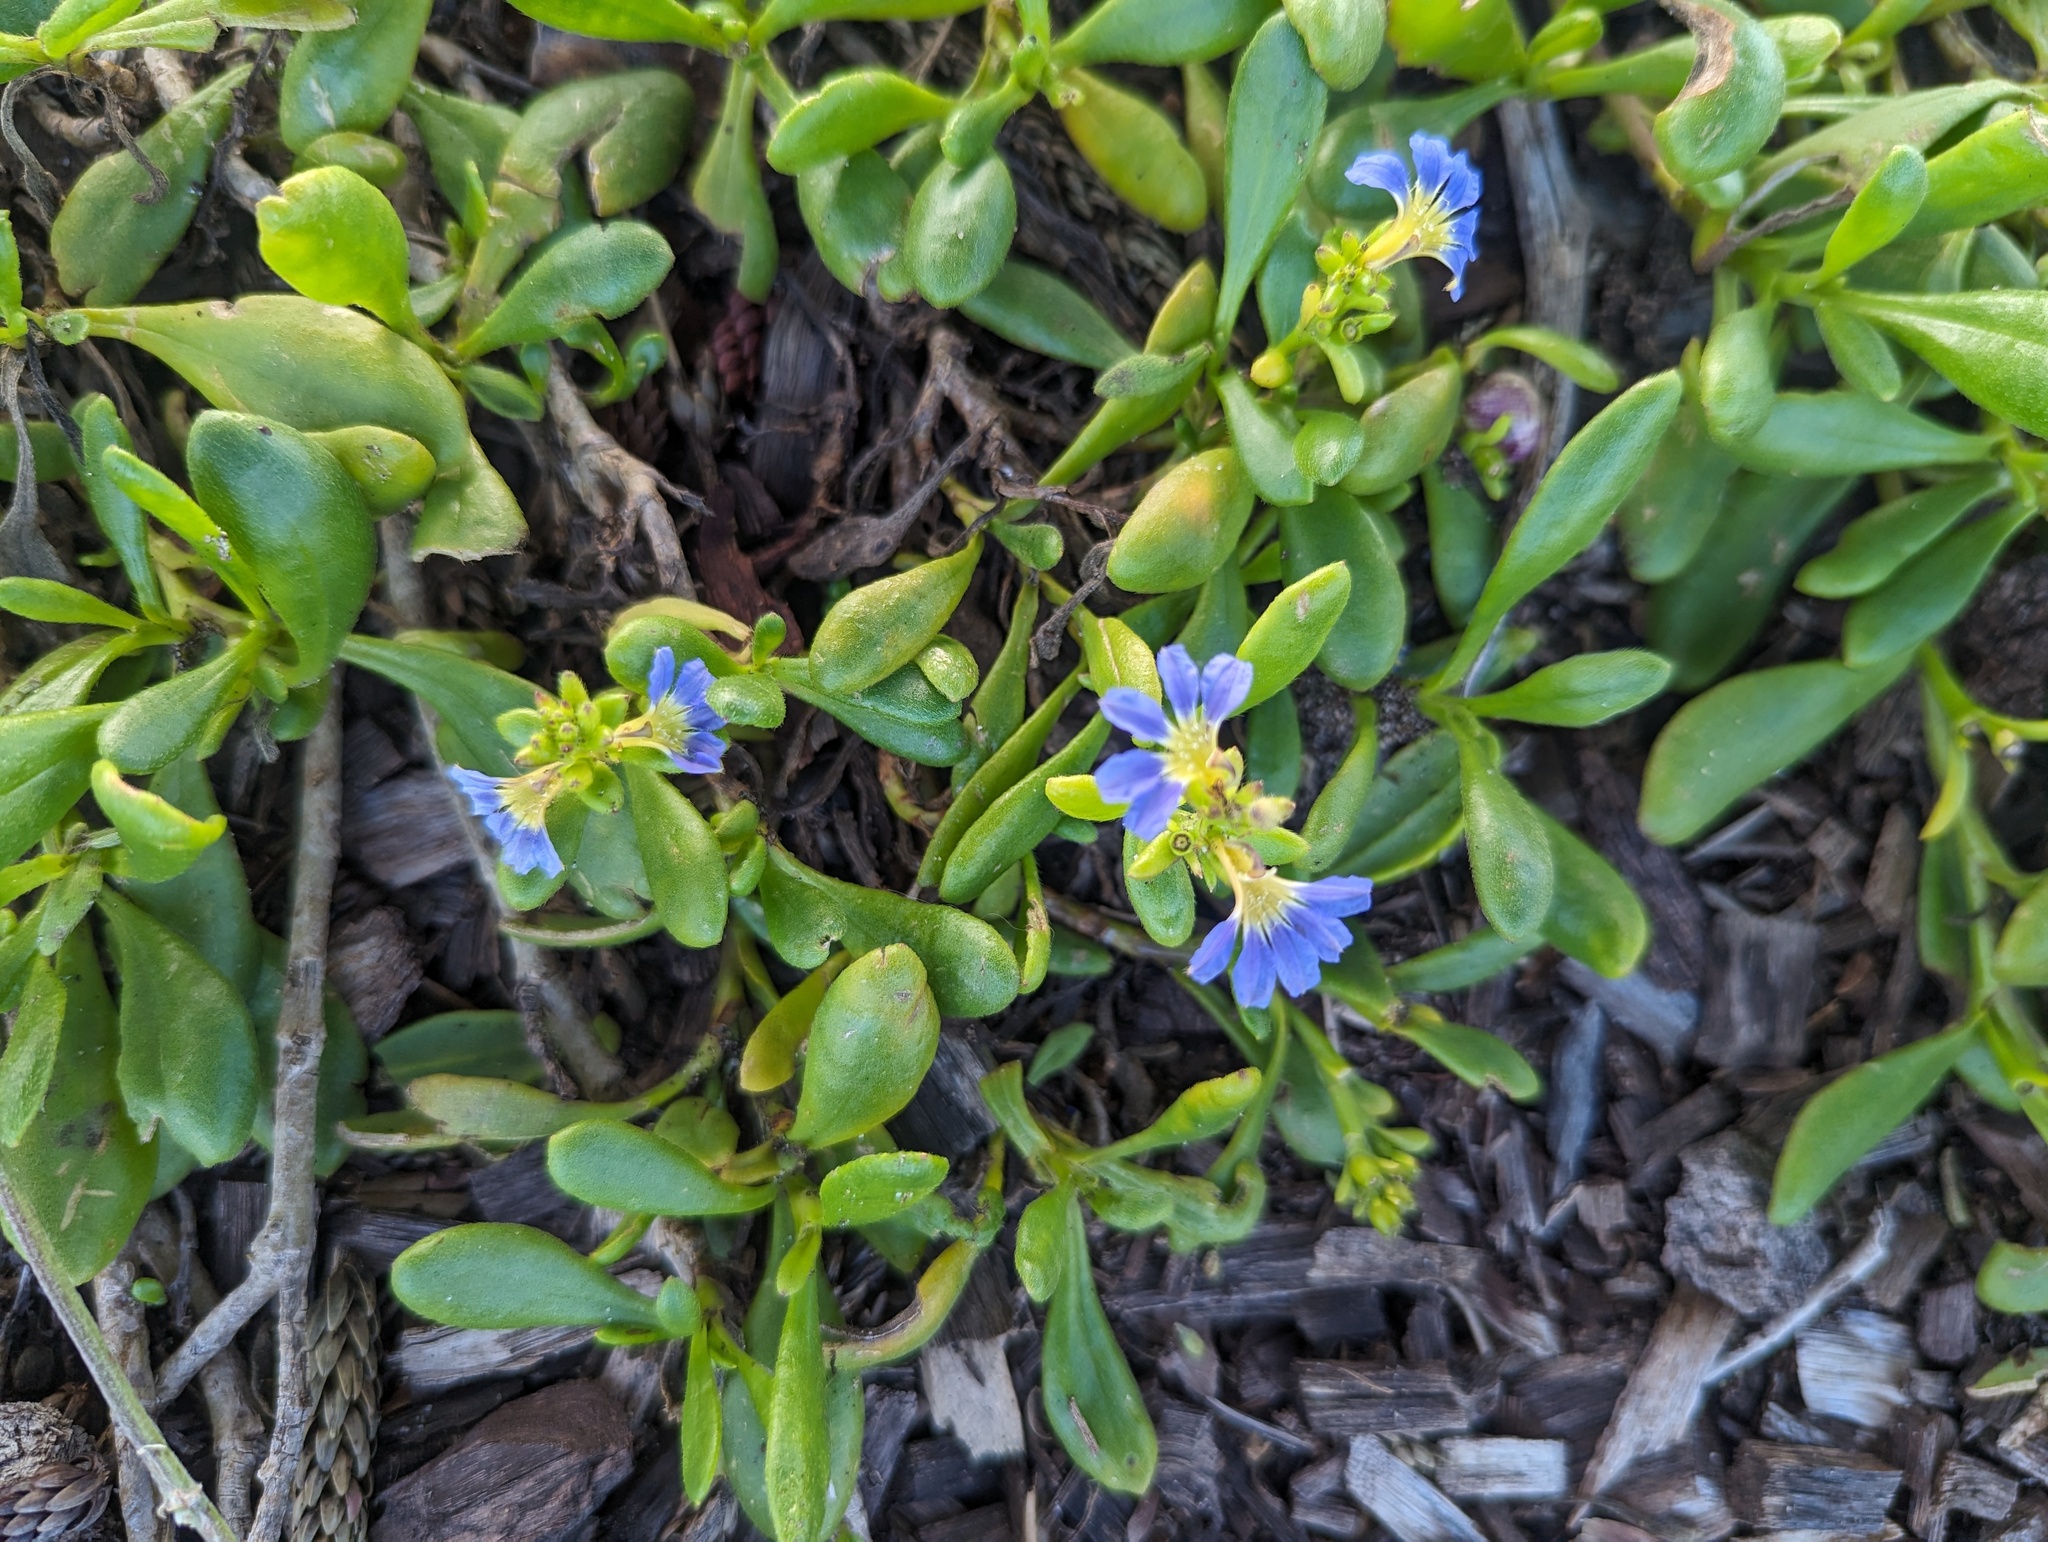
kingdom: Plantae
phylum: Tracheophyta
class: Magnoliopsida
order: Asterales
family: Goodeniaceae
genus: Scaevola
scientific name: Scaevola calendulacea
